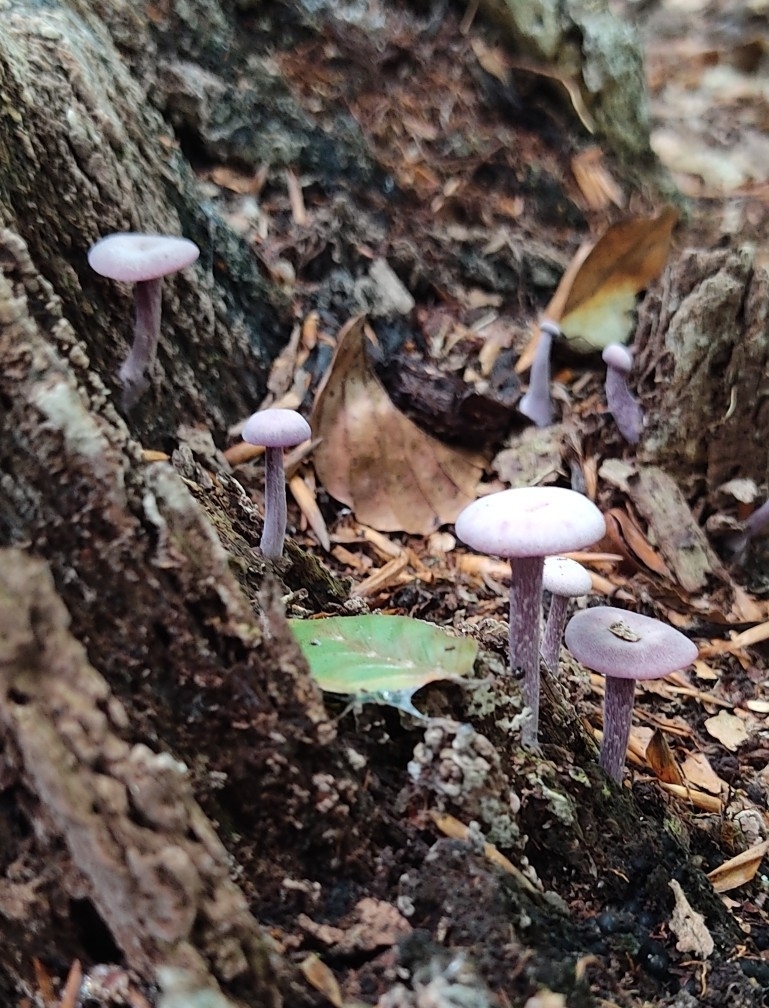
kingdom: Fungi
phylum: Basidiomycota
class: Agaricomycetes
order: Agaricales
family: Hydnangiaceae
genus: Laccaria
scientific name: Laccaria amethystina
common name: Amethyst deceiver
